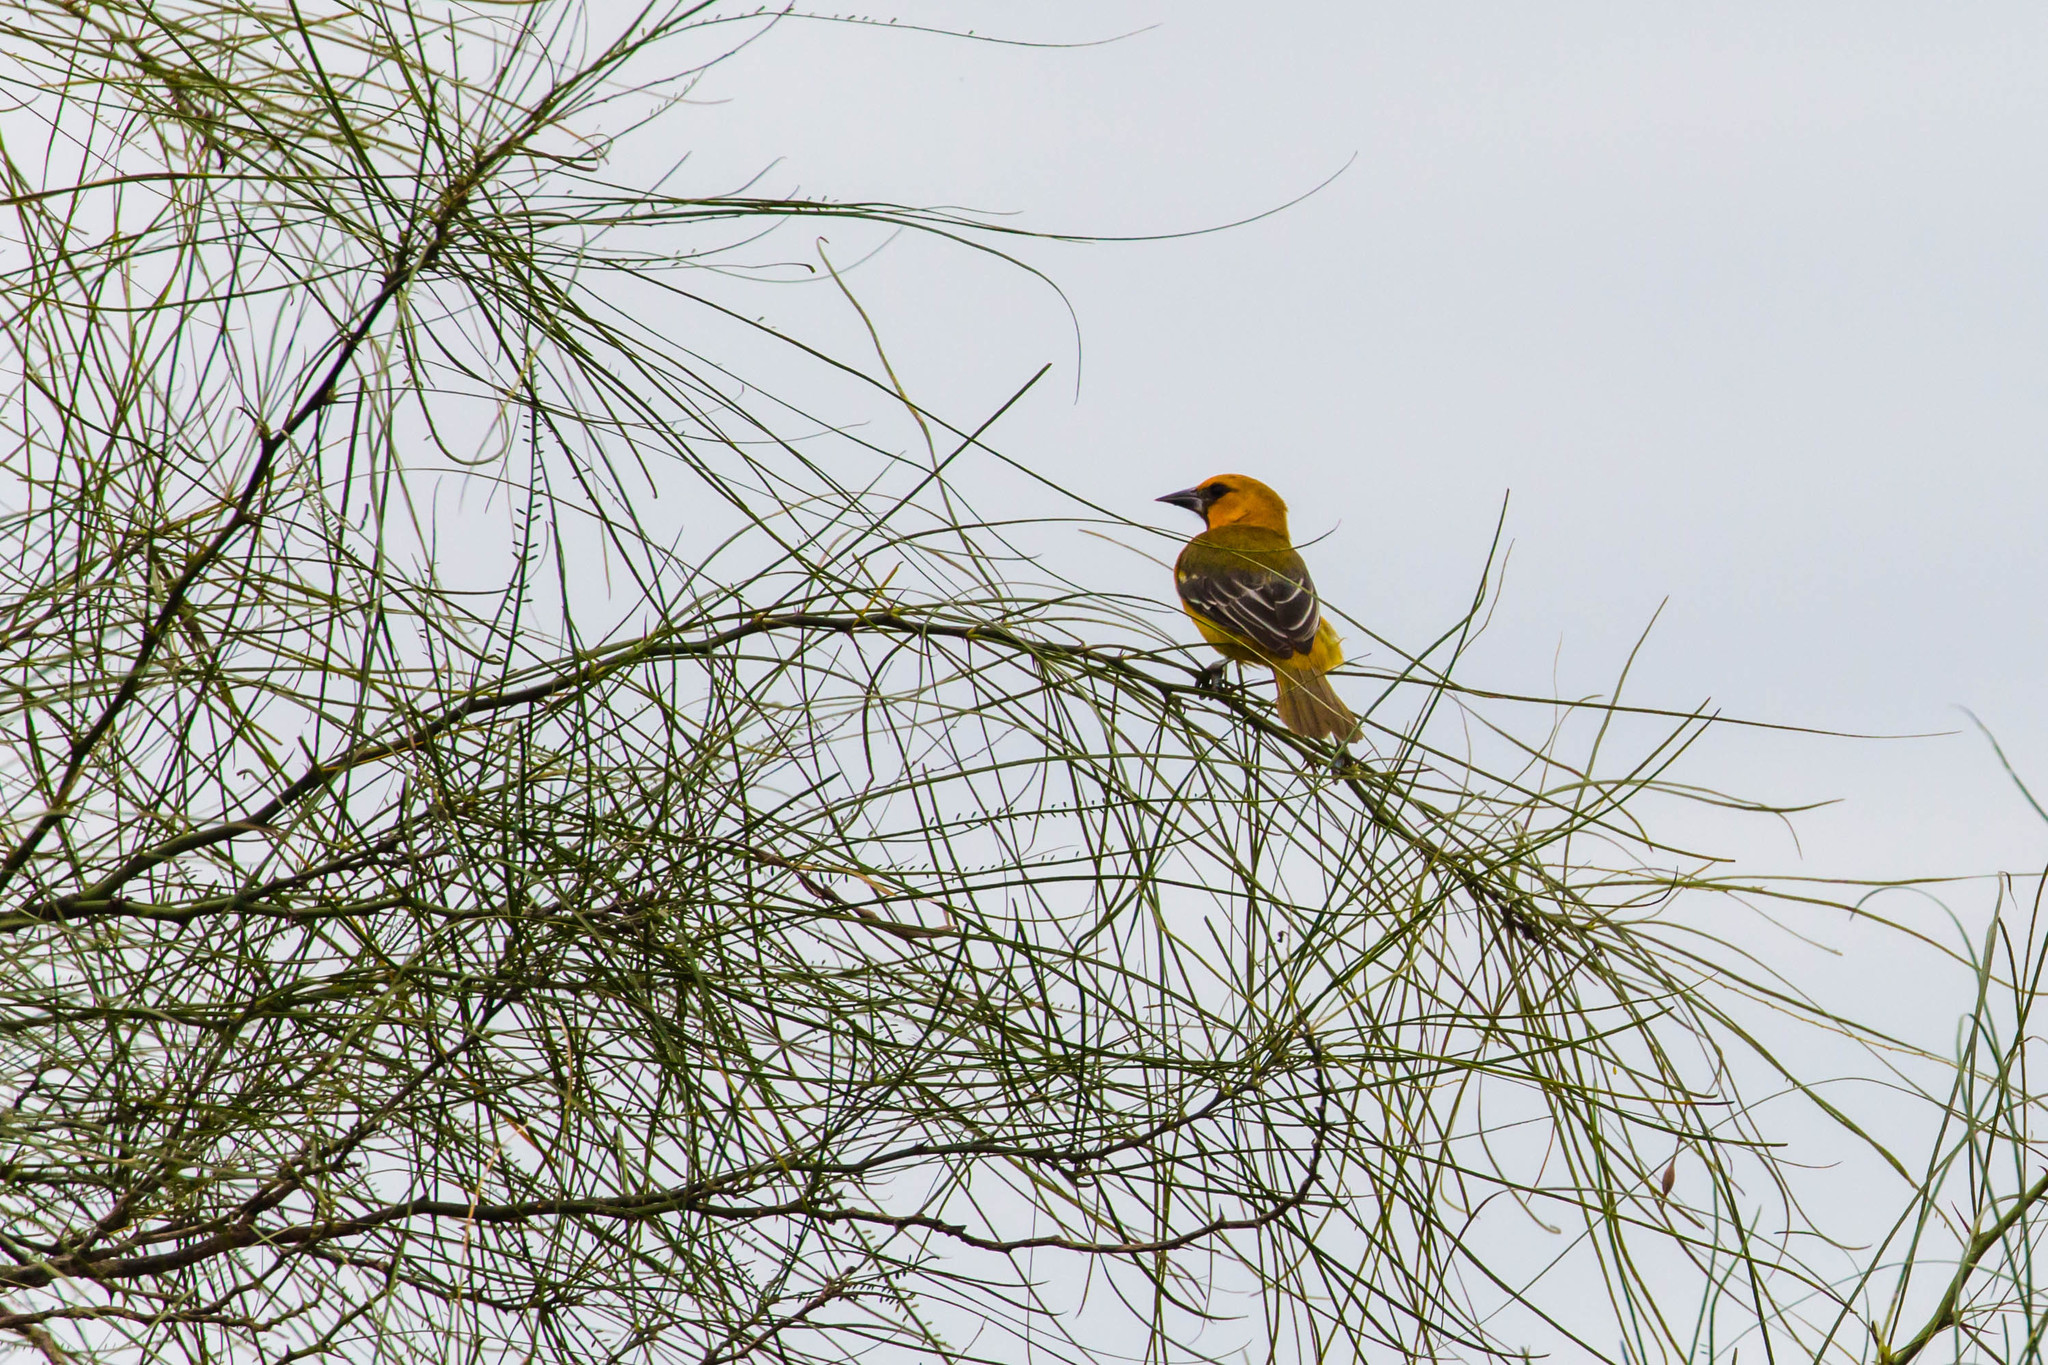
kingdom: Animalia
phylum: Chordata
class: Aves
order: Passeriformes
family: Icteridae
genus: Icterus
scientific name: Icterus gularis
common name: Altamira oriole
